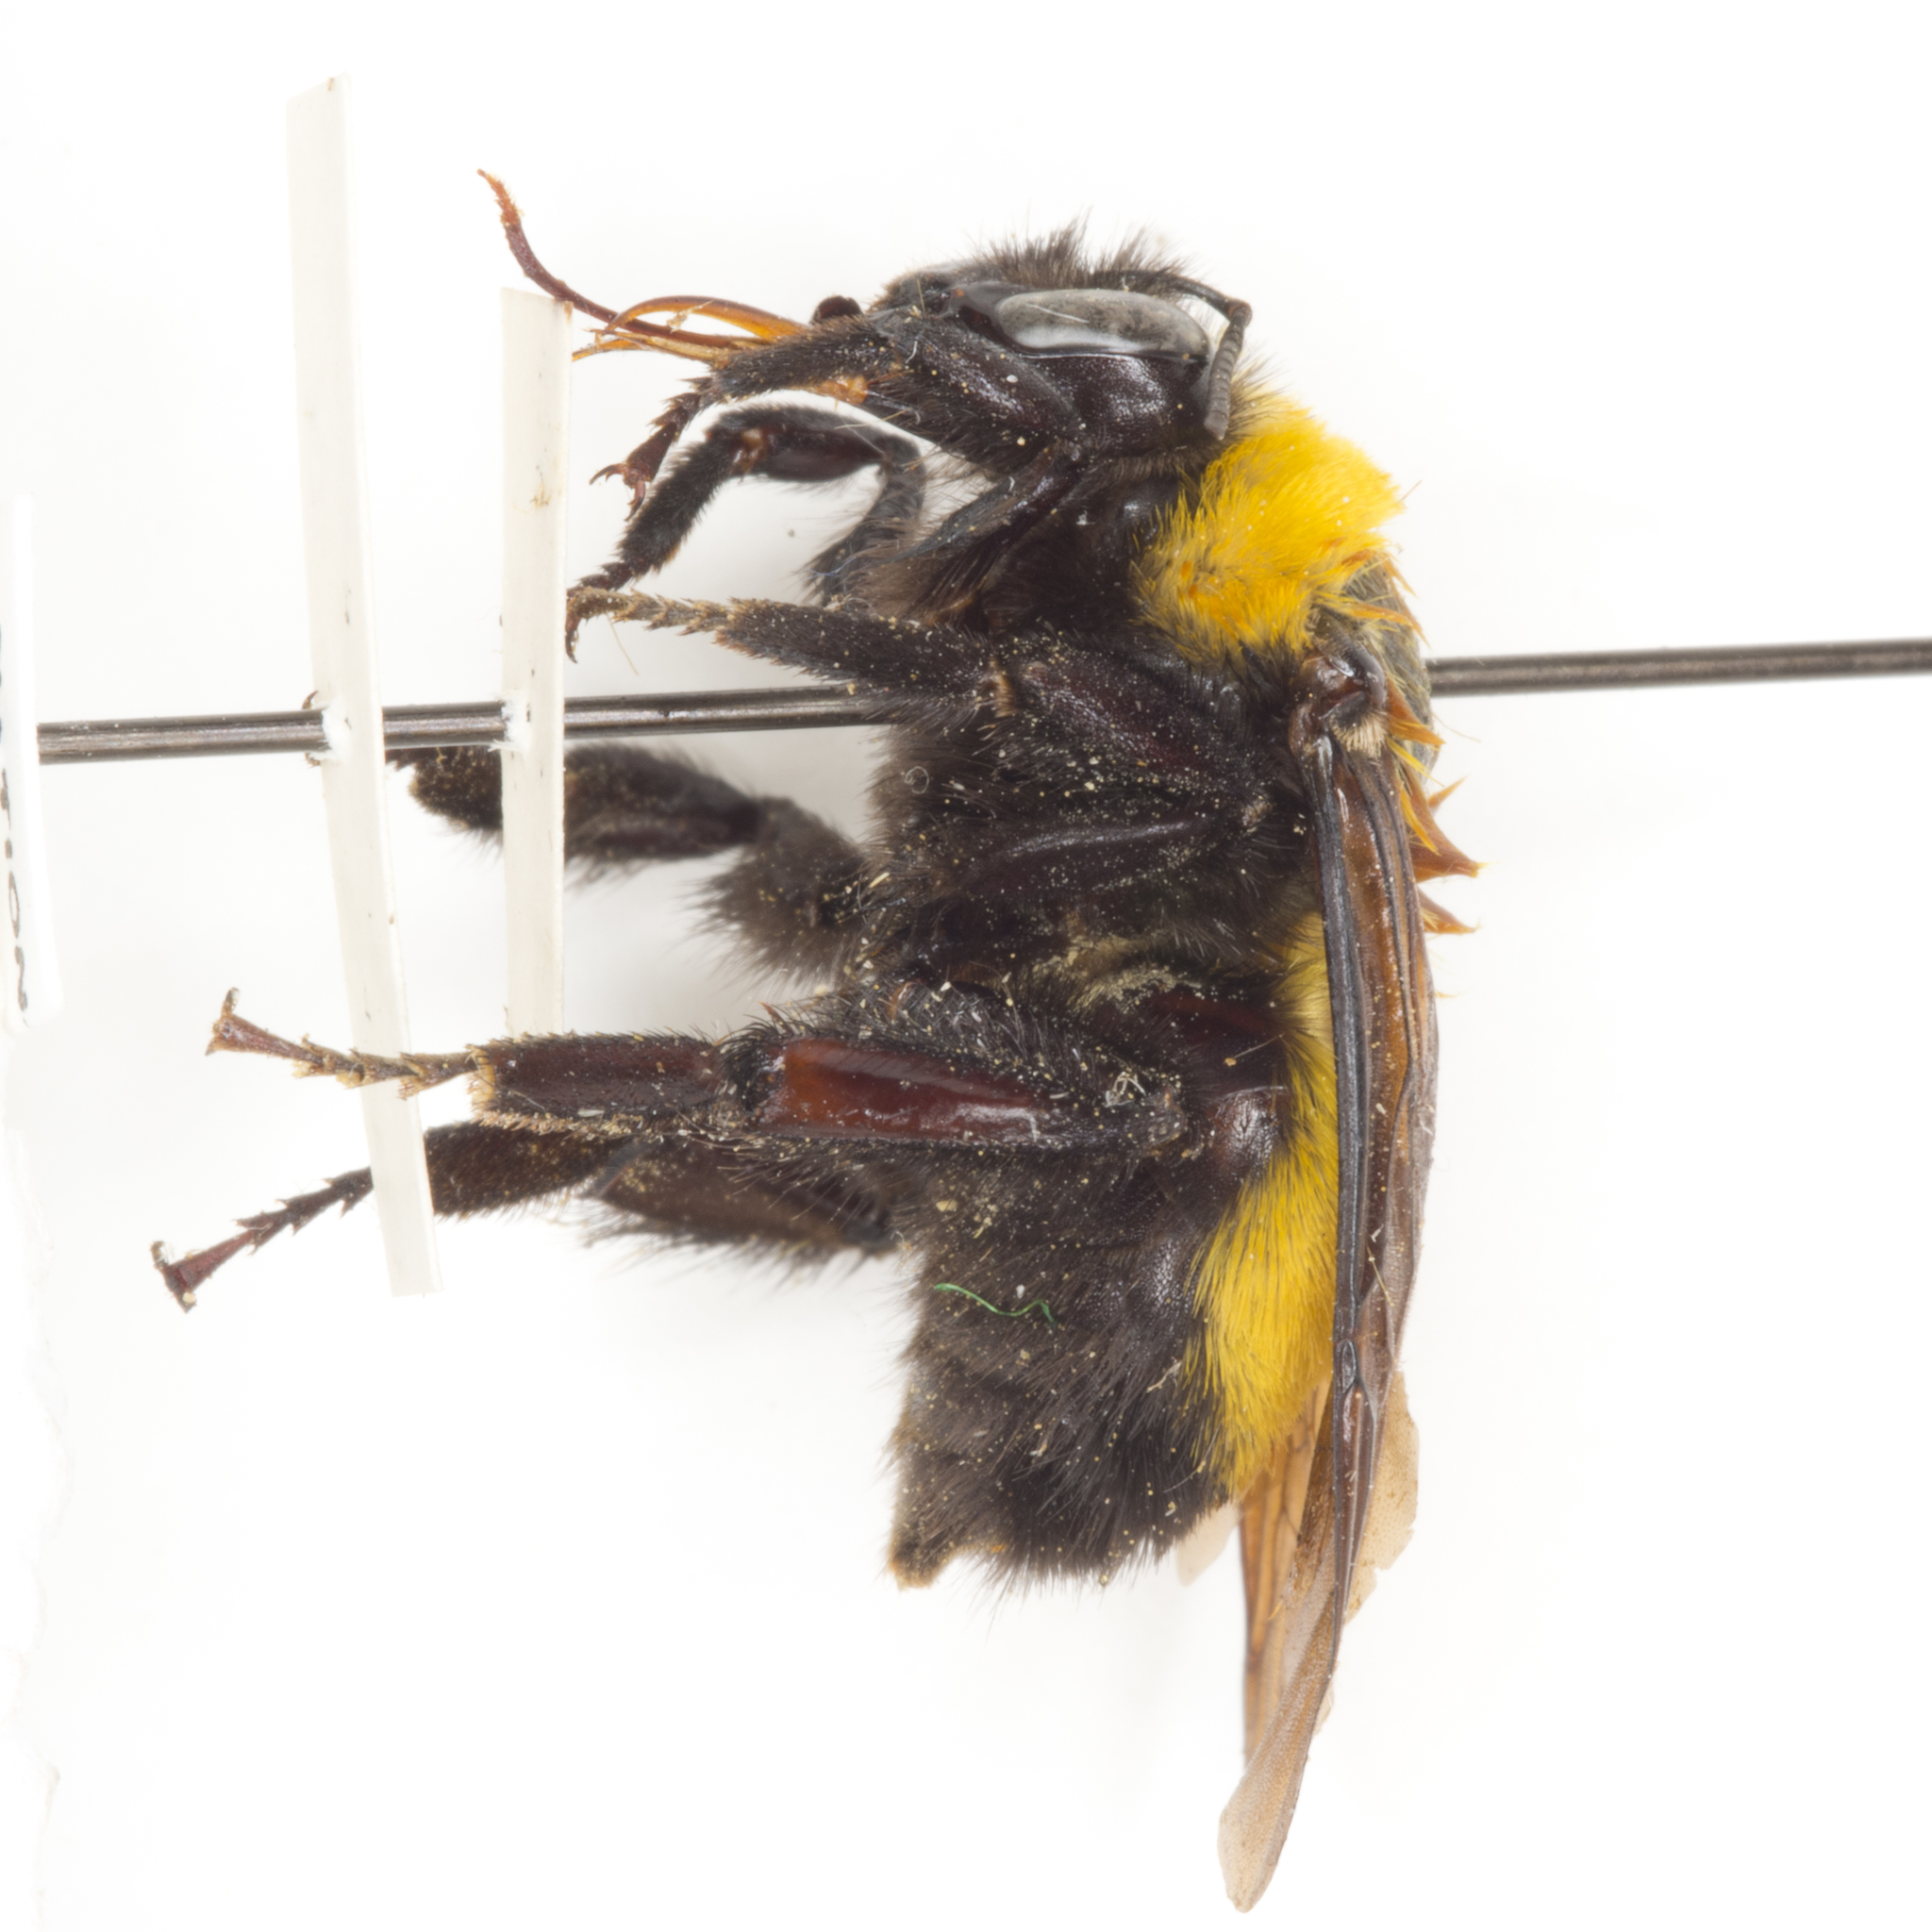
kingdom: Animalia
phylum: Arthropoda
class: Insecta
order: Hymenoptera
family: Apidae
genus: Bombus
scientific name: Bombus morrisoni
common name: Morrison bumble bee
